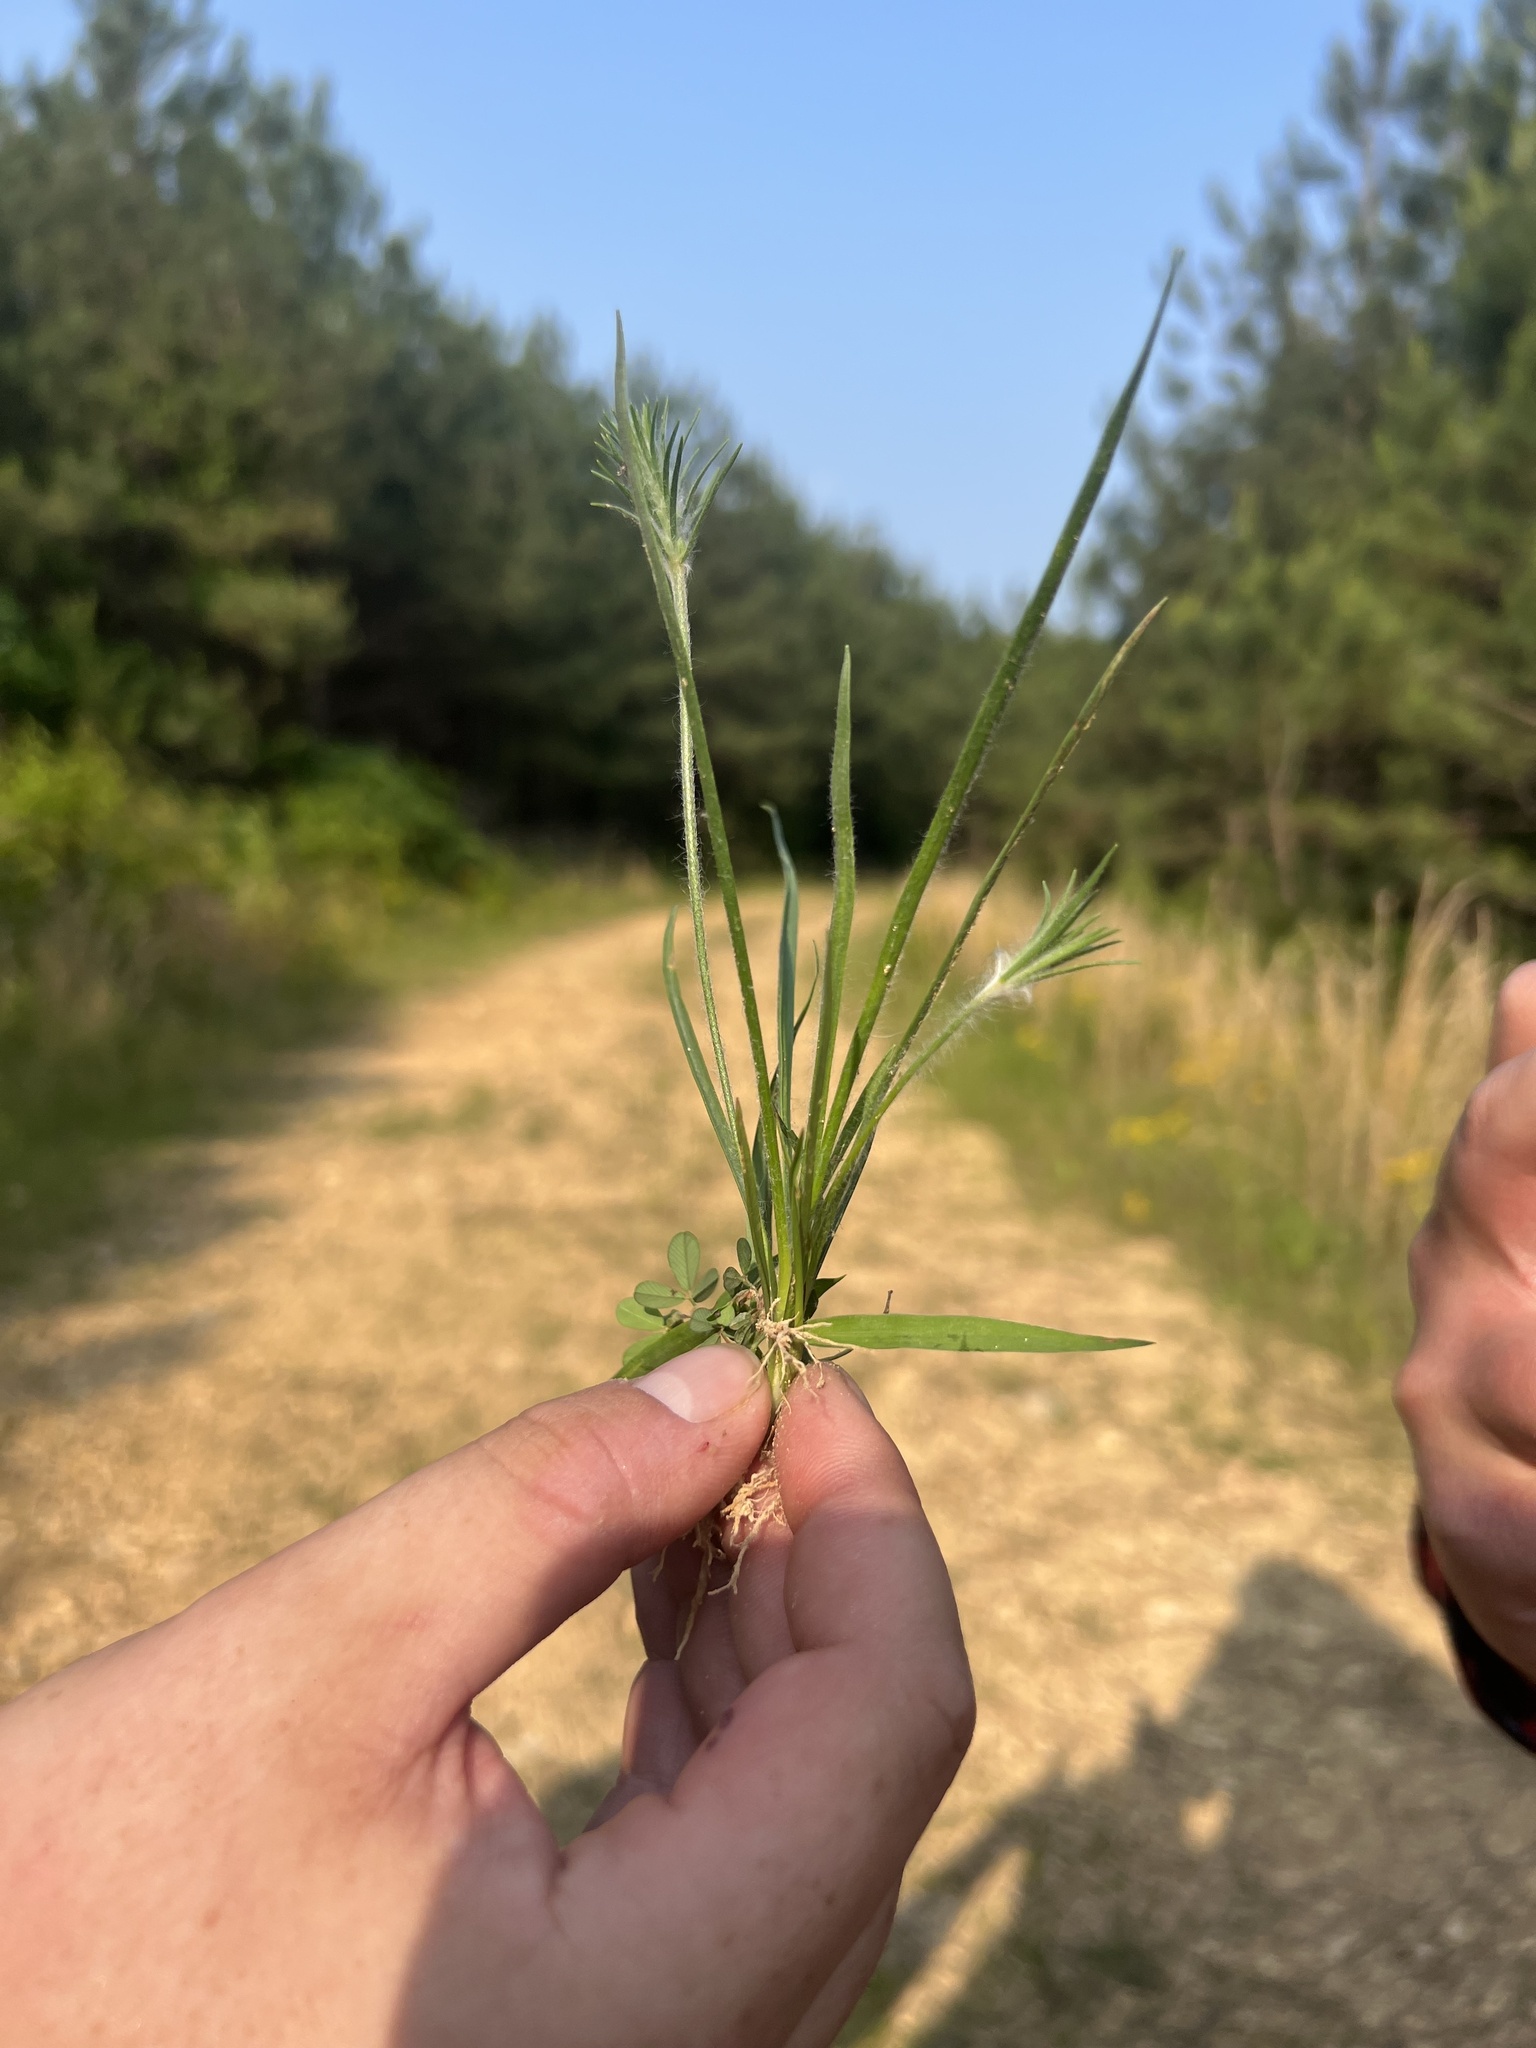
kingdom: Plantae
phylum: Tracheophyta
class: Magnoliopsida
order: Lamiales
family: Plantaginaceae
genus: Plantago
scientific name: Plantago aristata
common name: Bracted plantain
